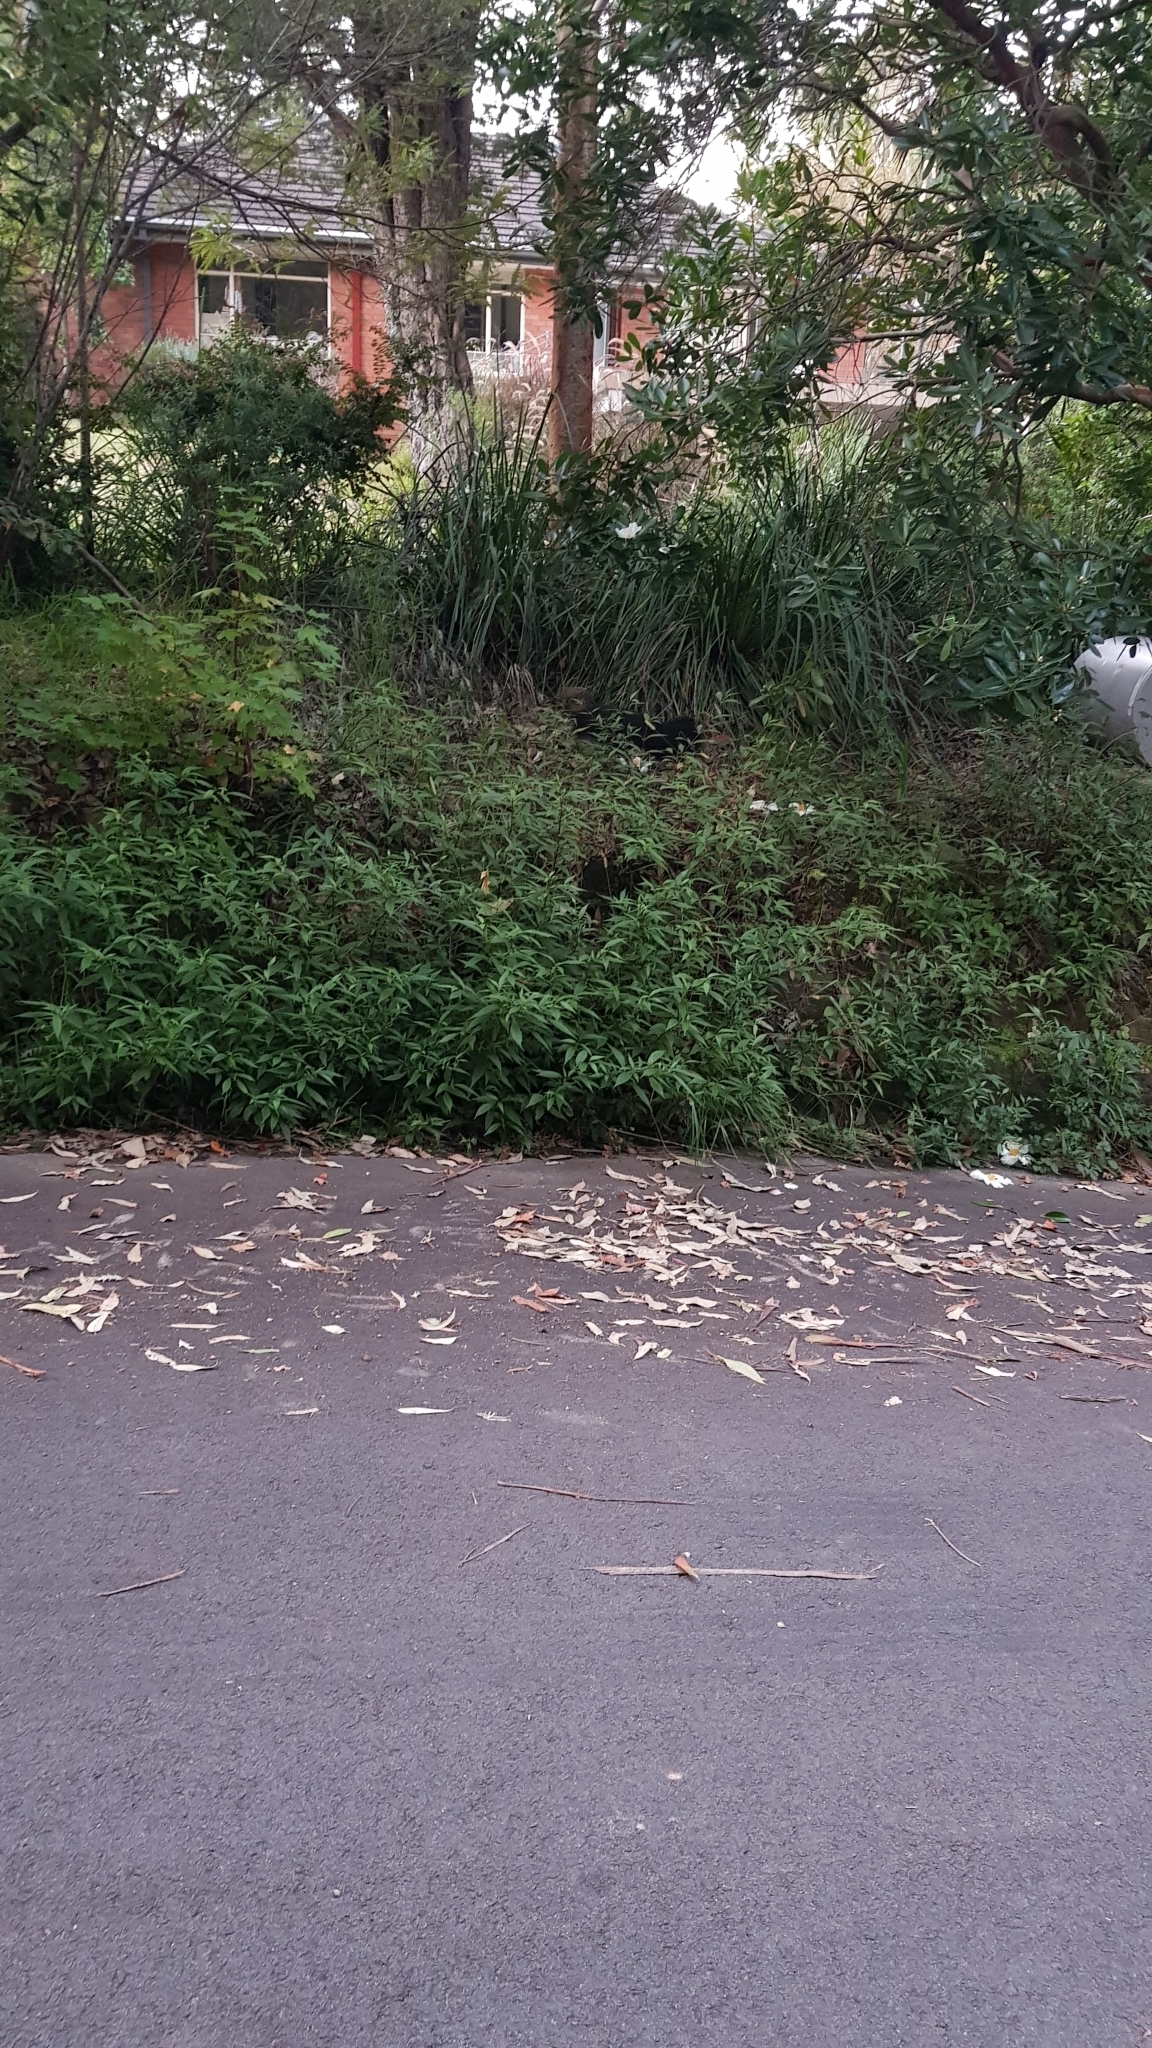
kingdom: Animalia
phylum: Chordata
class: Aves
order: Galliformes
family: Megapodiidae
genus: Alectura
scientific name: Alectura lathami
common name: Australian brushturkey
